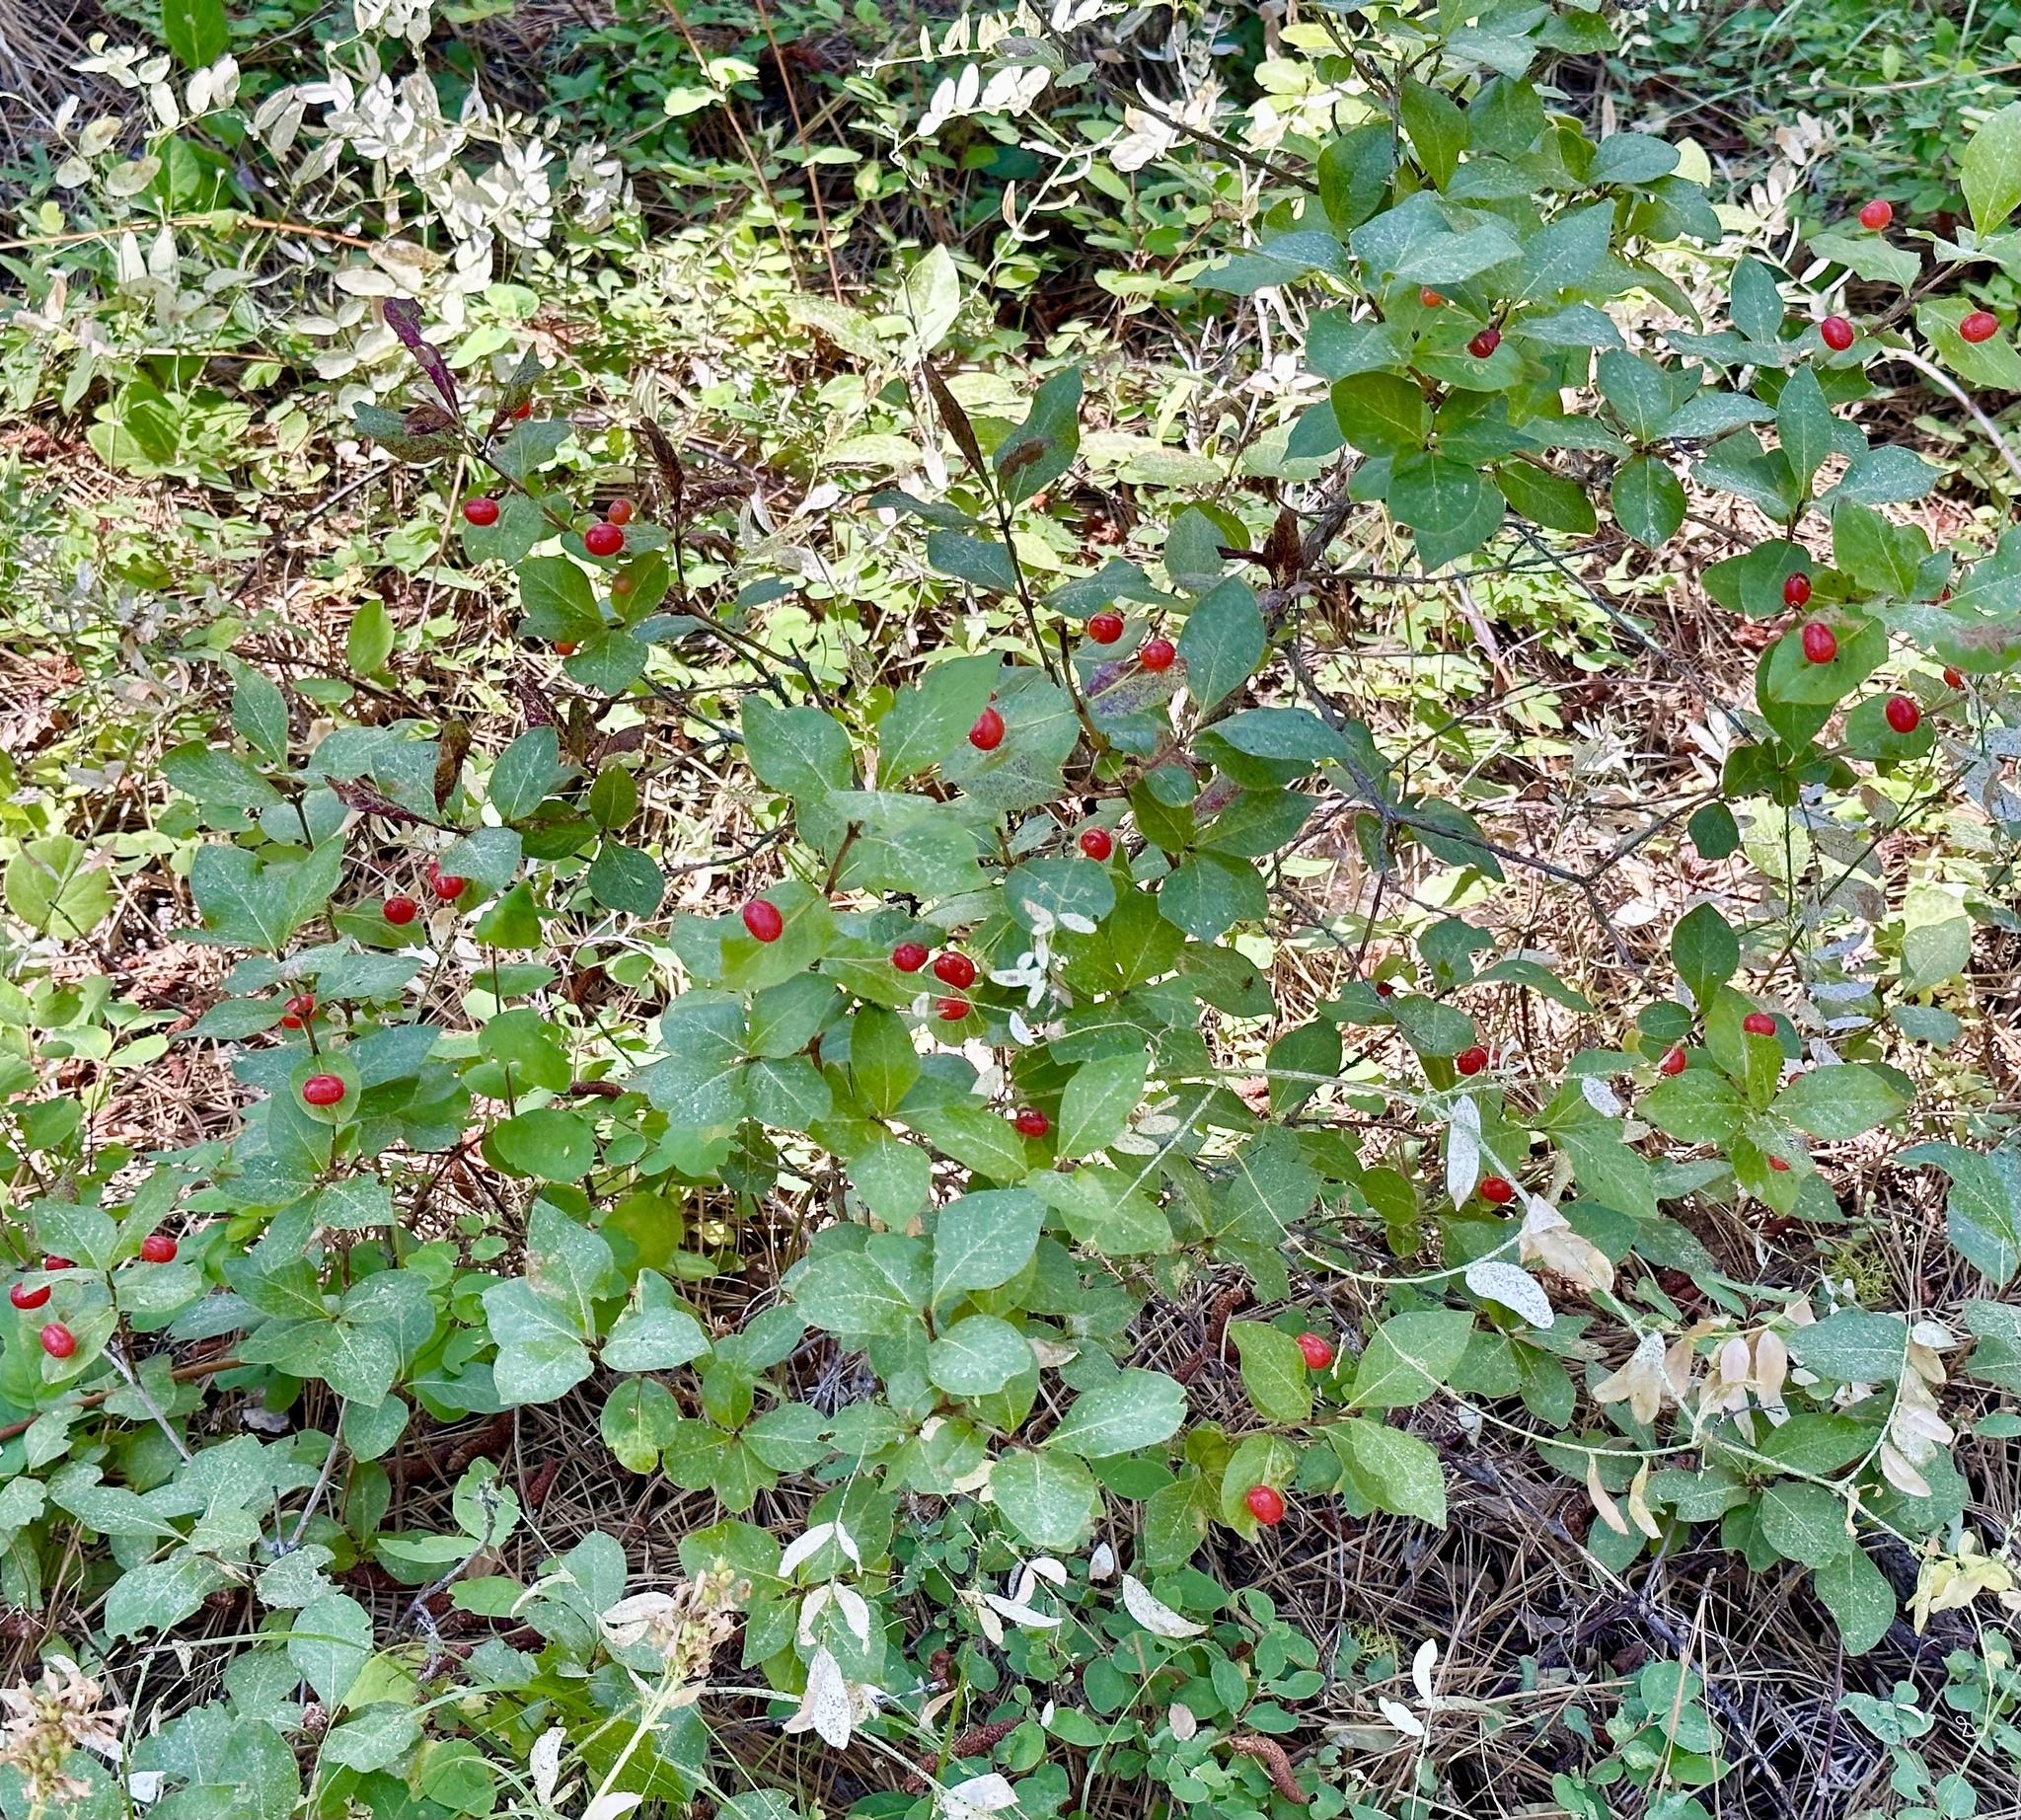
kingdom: Plantae
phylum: Tracheophyta
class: Magnoliopsida
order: Dipsacales
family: Caprifoliaceae
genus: Lonicera
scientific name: Lonicera conjugialis
